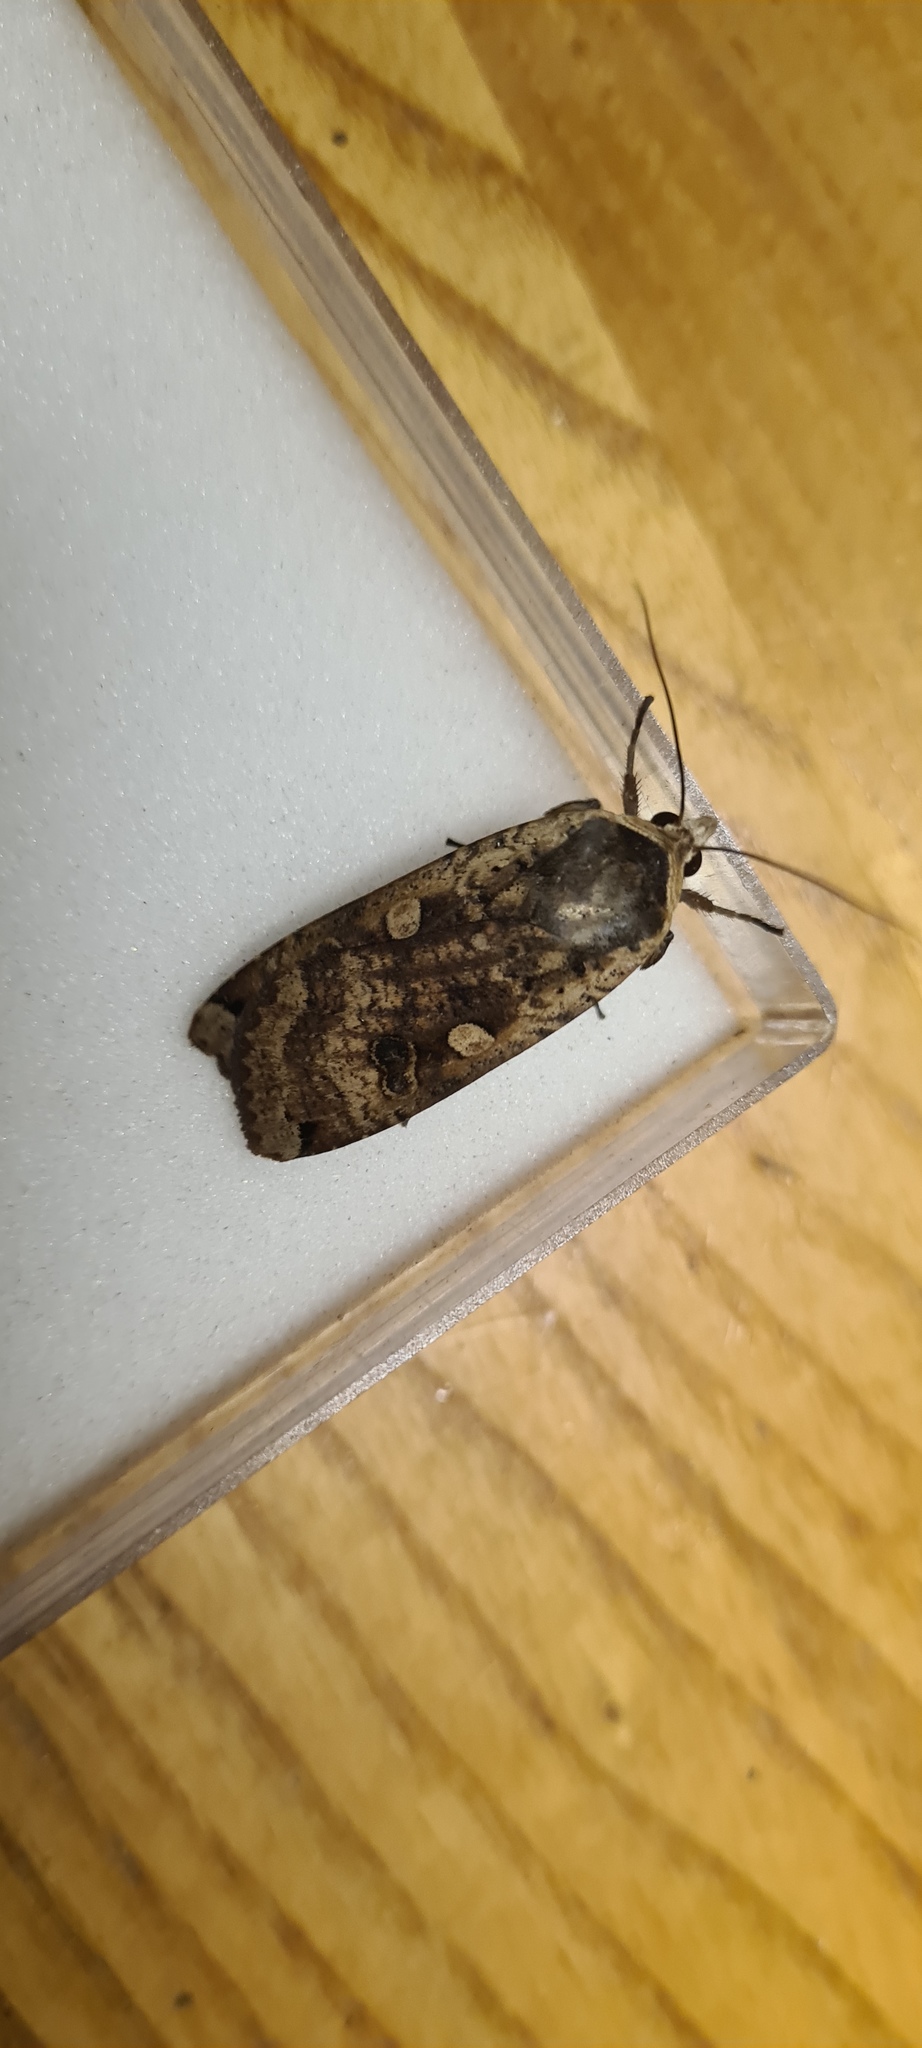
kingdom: Animalia
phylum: Arthropoda
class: Insecta
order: Lepidoptera
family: Noctuidae
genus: Noctua
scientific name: Noctua pronuba
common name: Large yellow underwing
